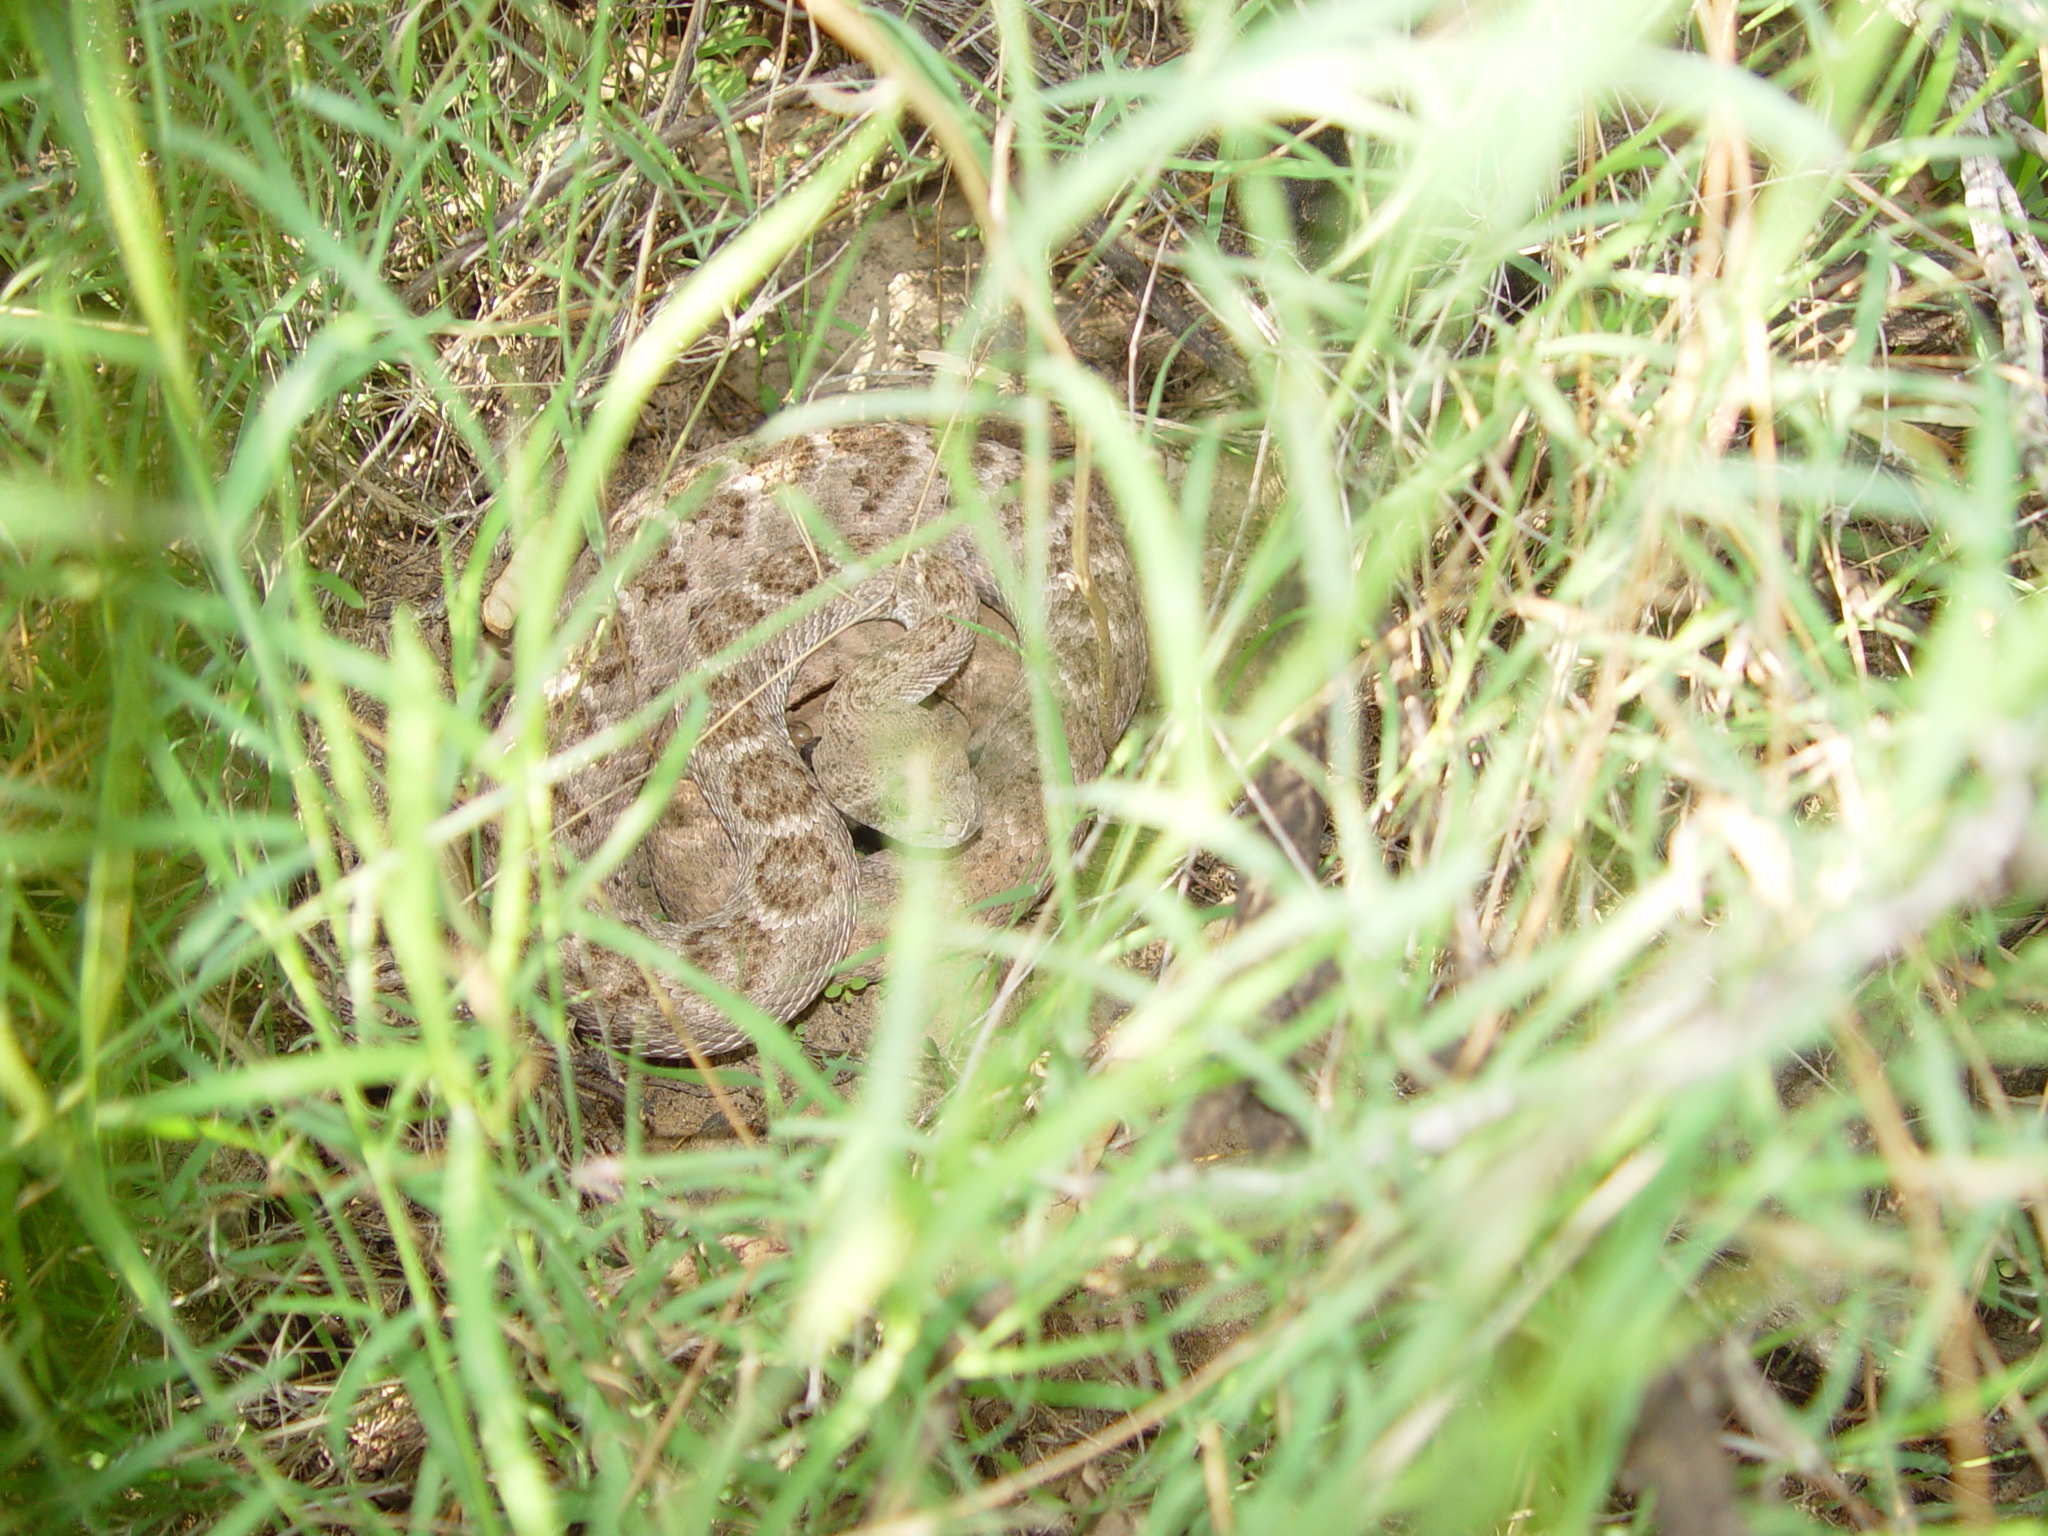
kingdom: Animalia
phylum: Chordata
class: Squamata
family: Viperidae
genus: Crotalus
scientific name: Crotalus atrox
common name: Western diamond-backed rattlesnake
